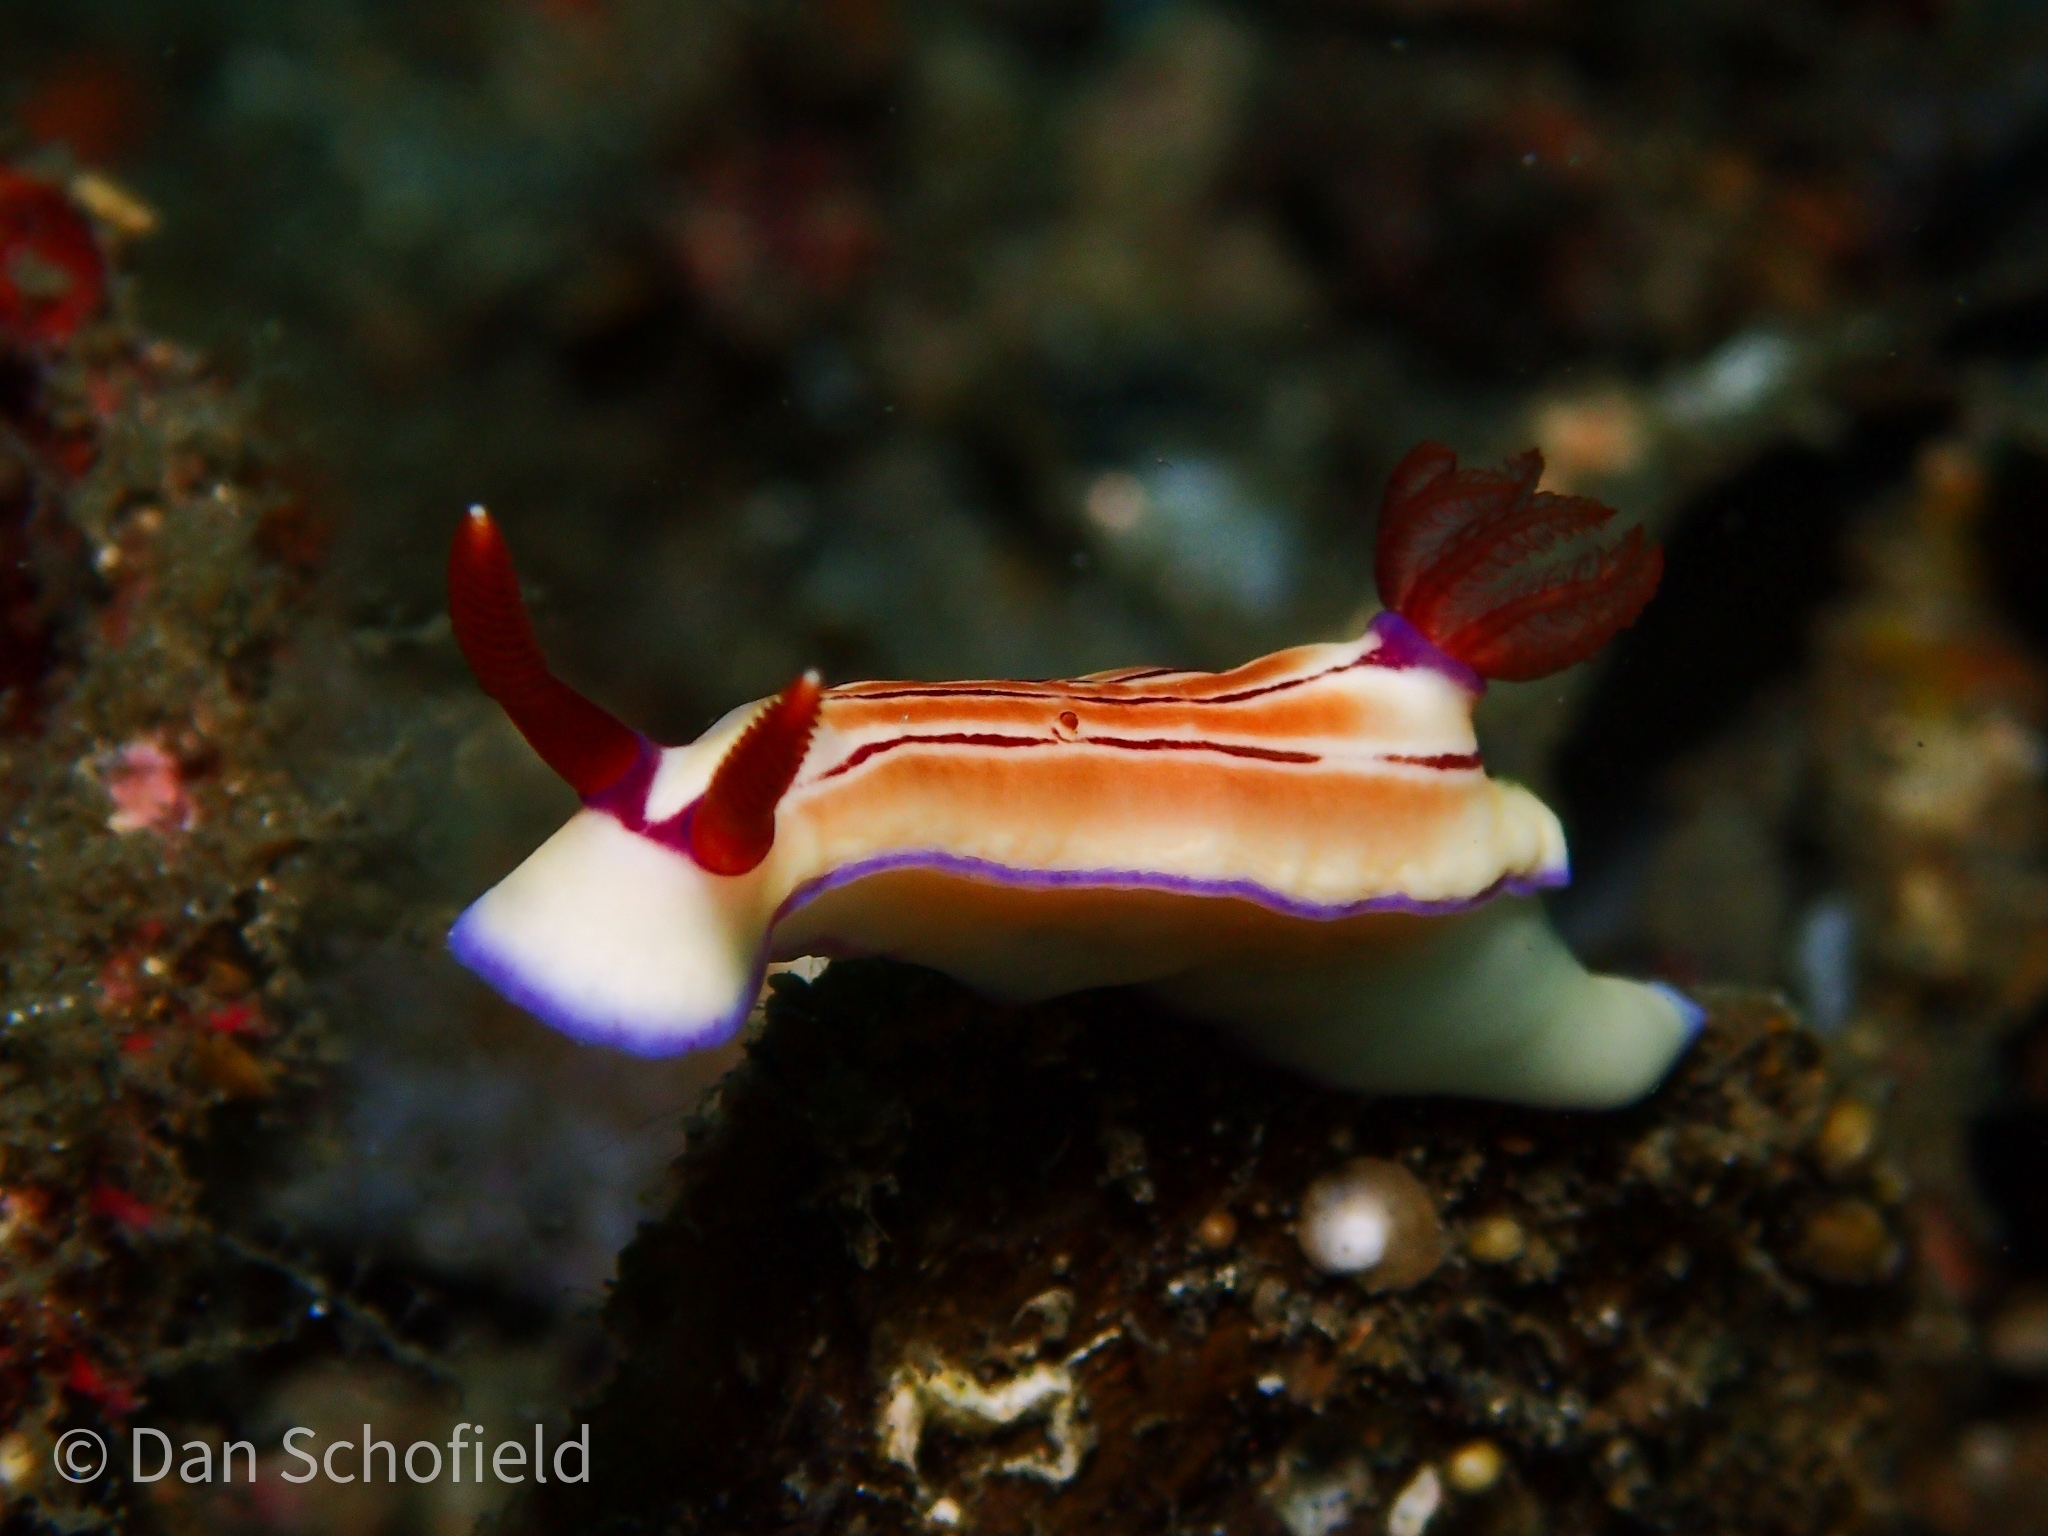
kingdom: Animalia
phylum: Mollusca
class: Gastropoda
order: Nudibranchia
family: Chromodorididae
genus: Hypselodoris
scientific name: Hypselodoris emma
